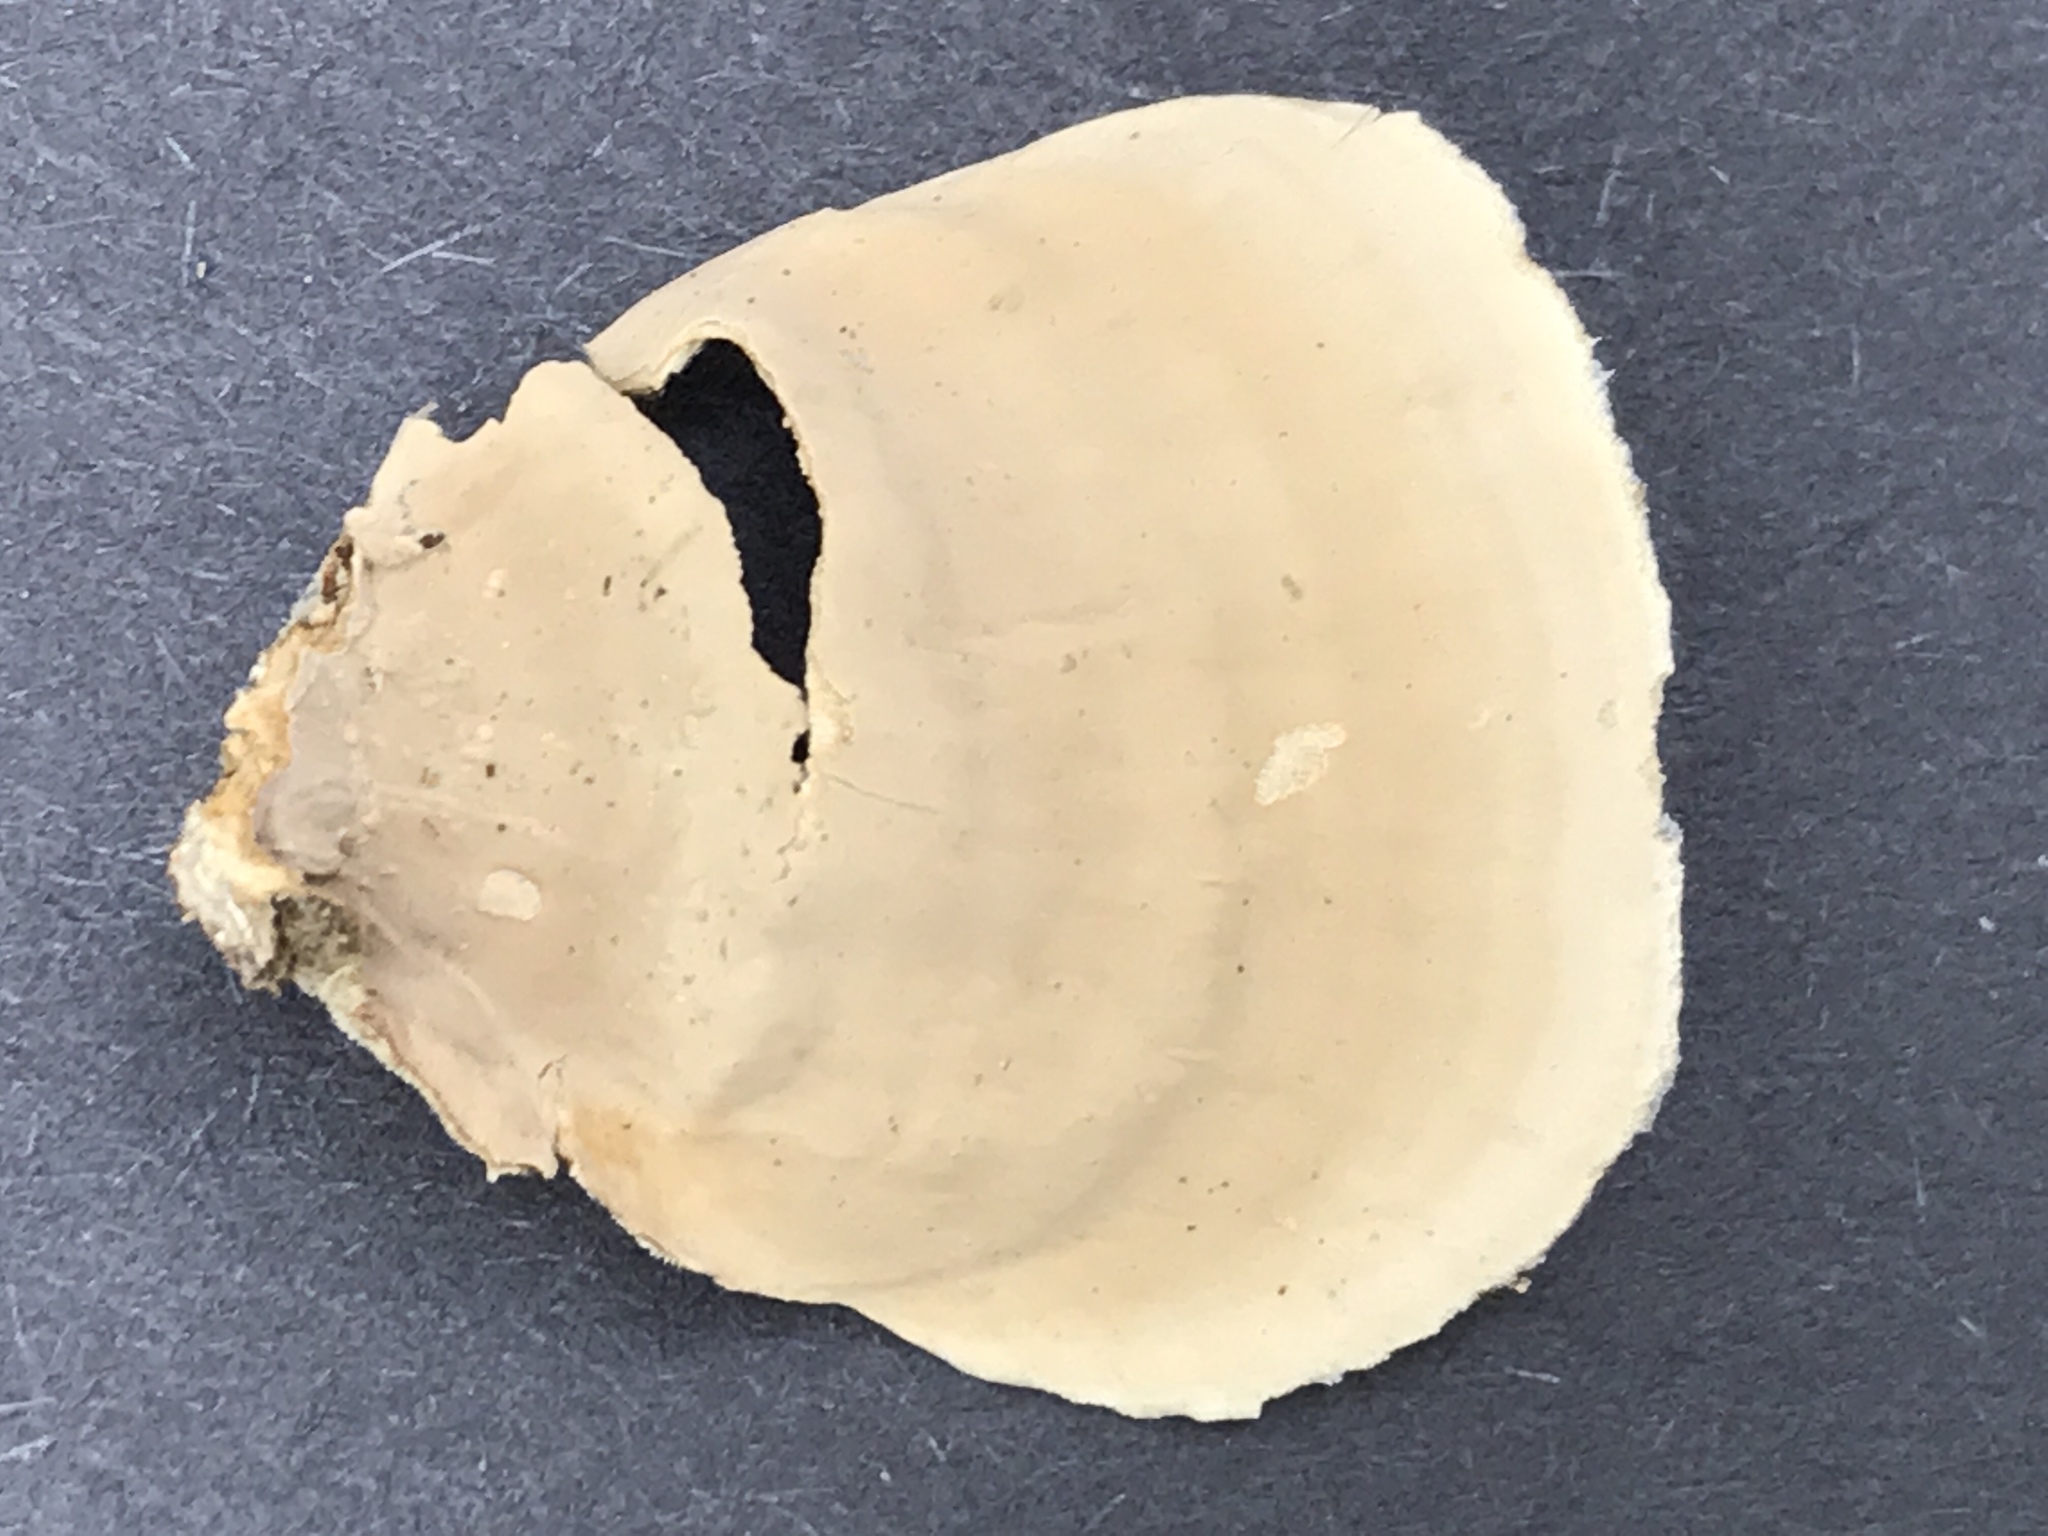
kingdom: Fungi
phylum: Basidiomycota
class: Agaricomycetes
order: Russulales
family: Stereaceae
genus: Stereum
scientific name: Stereum ostrea
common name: False turkeytail
